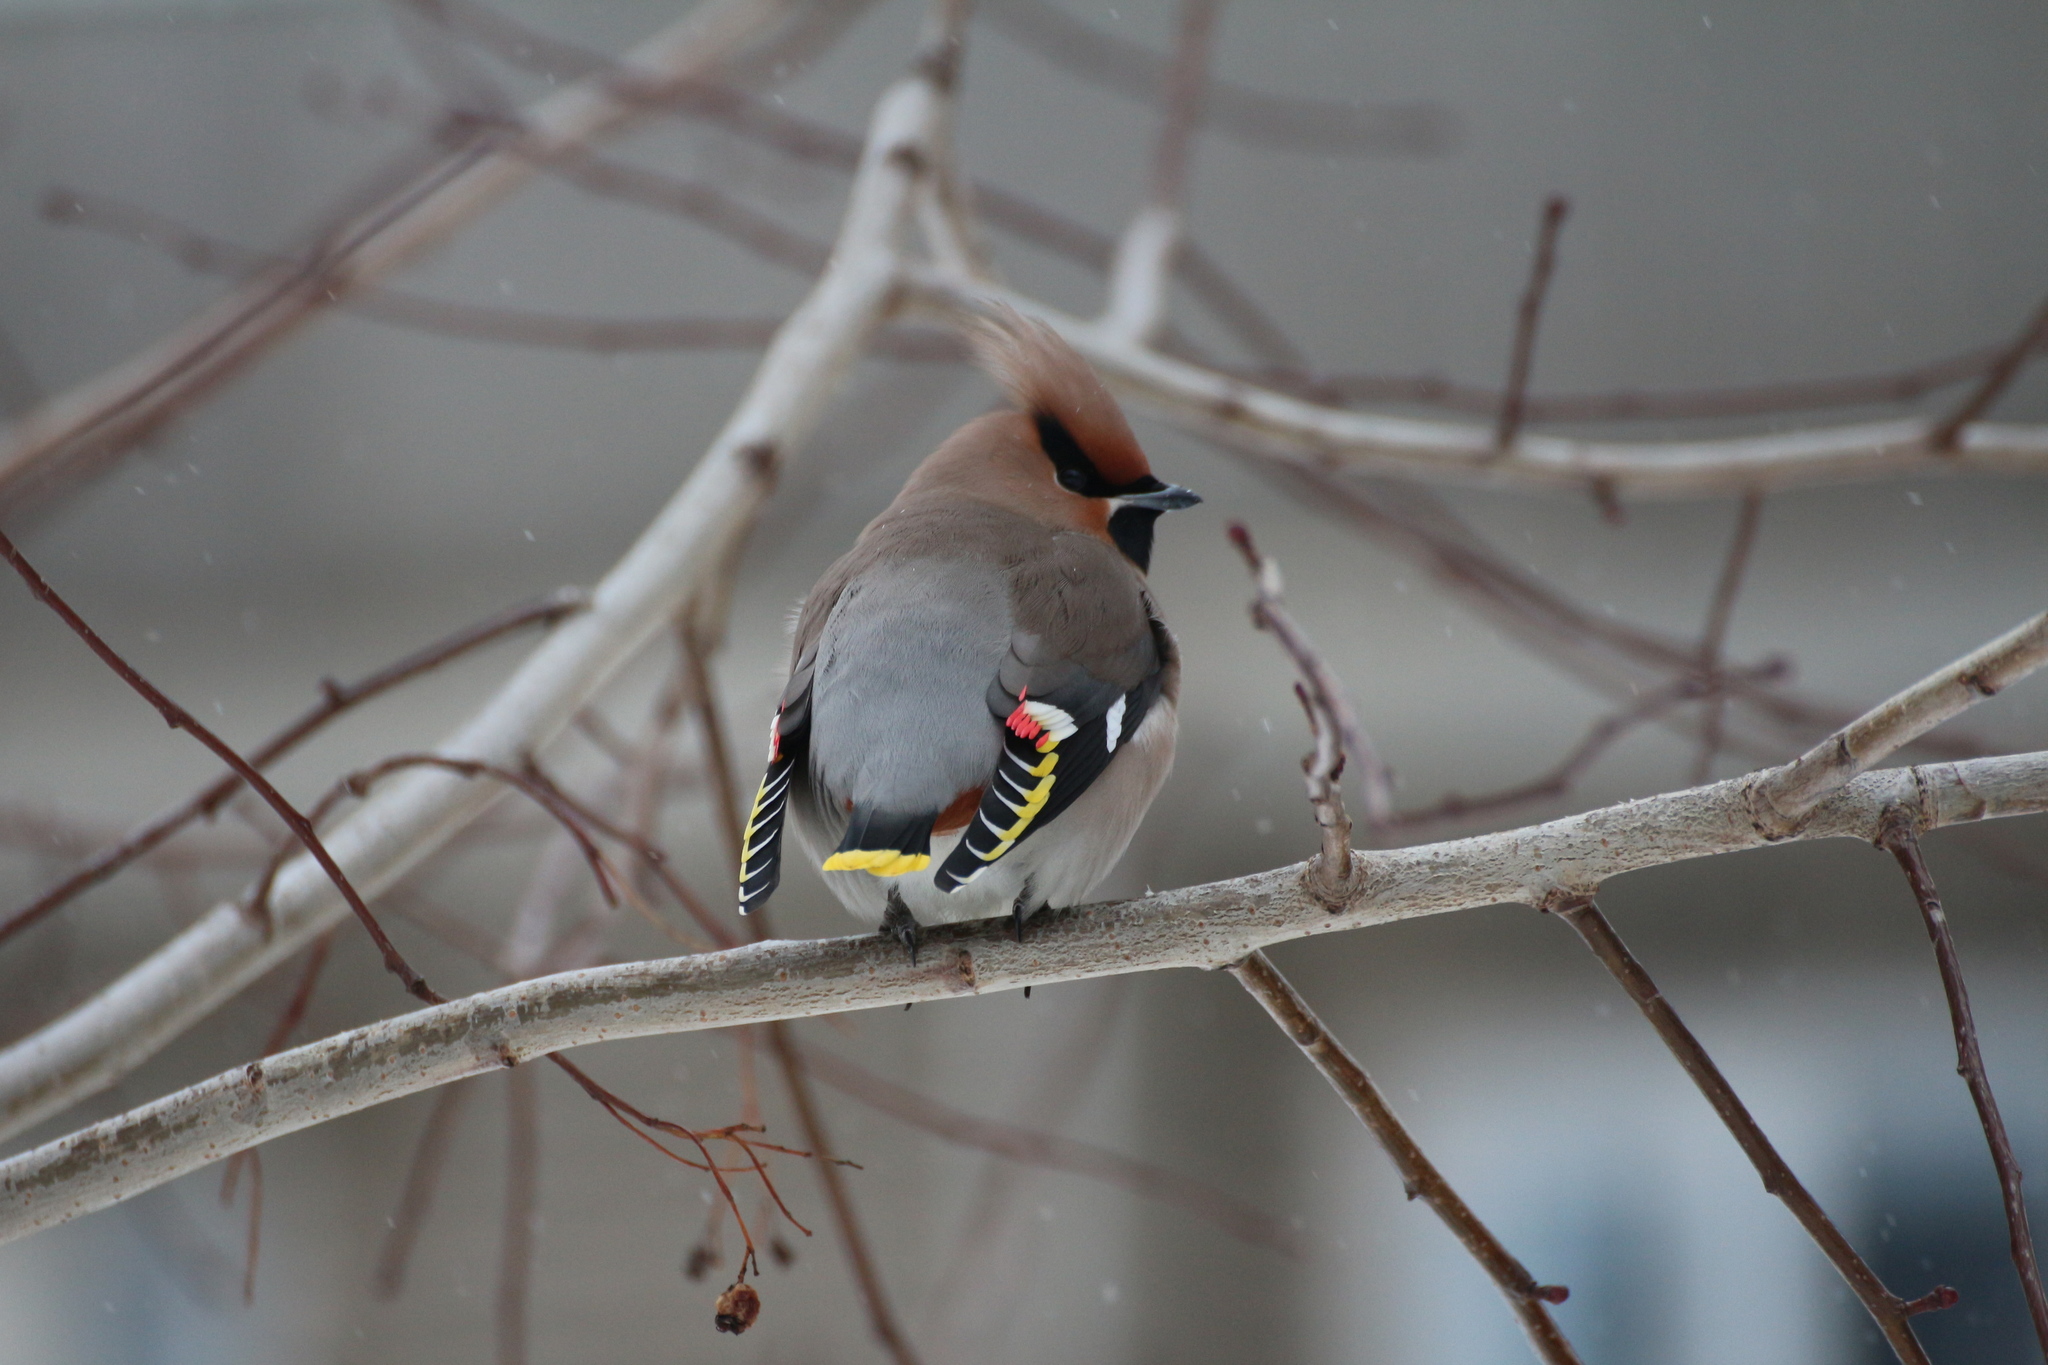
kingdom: Animalia
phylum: Chordata
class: Aves
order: Passeriformes
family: Bombycillidae
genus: Bombycilla
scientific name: Bombycilla garrulus
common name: Bohemian waxwing
